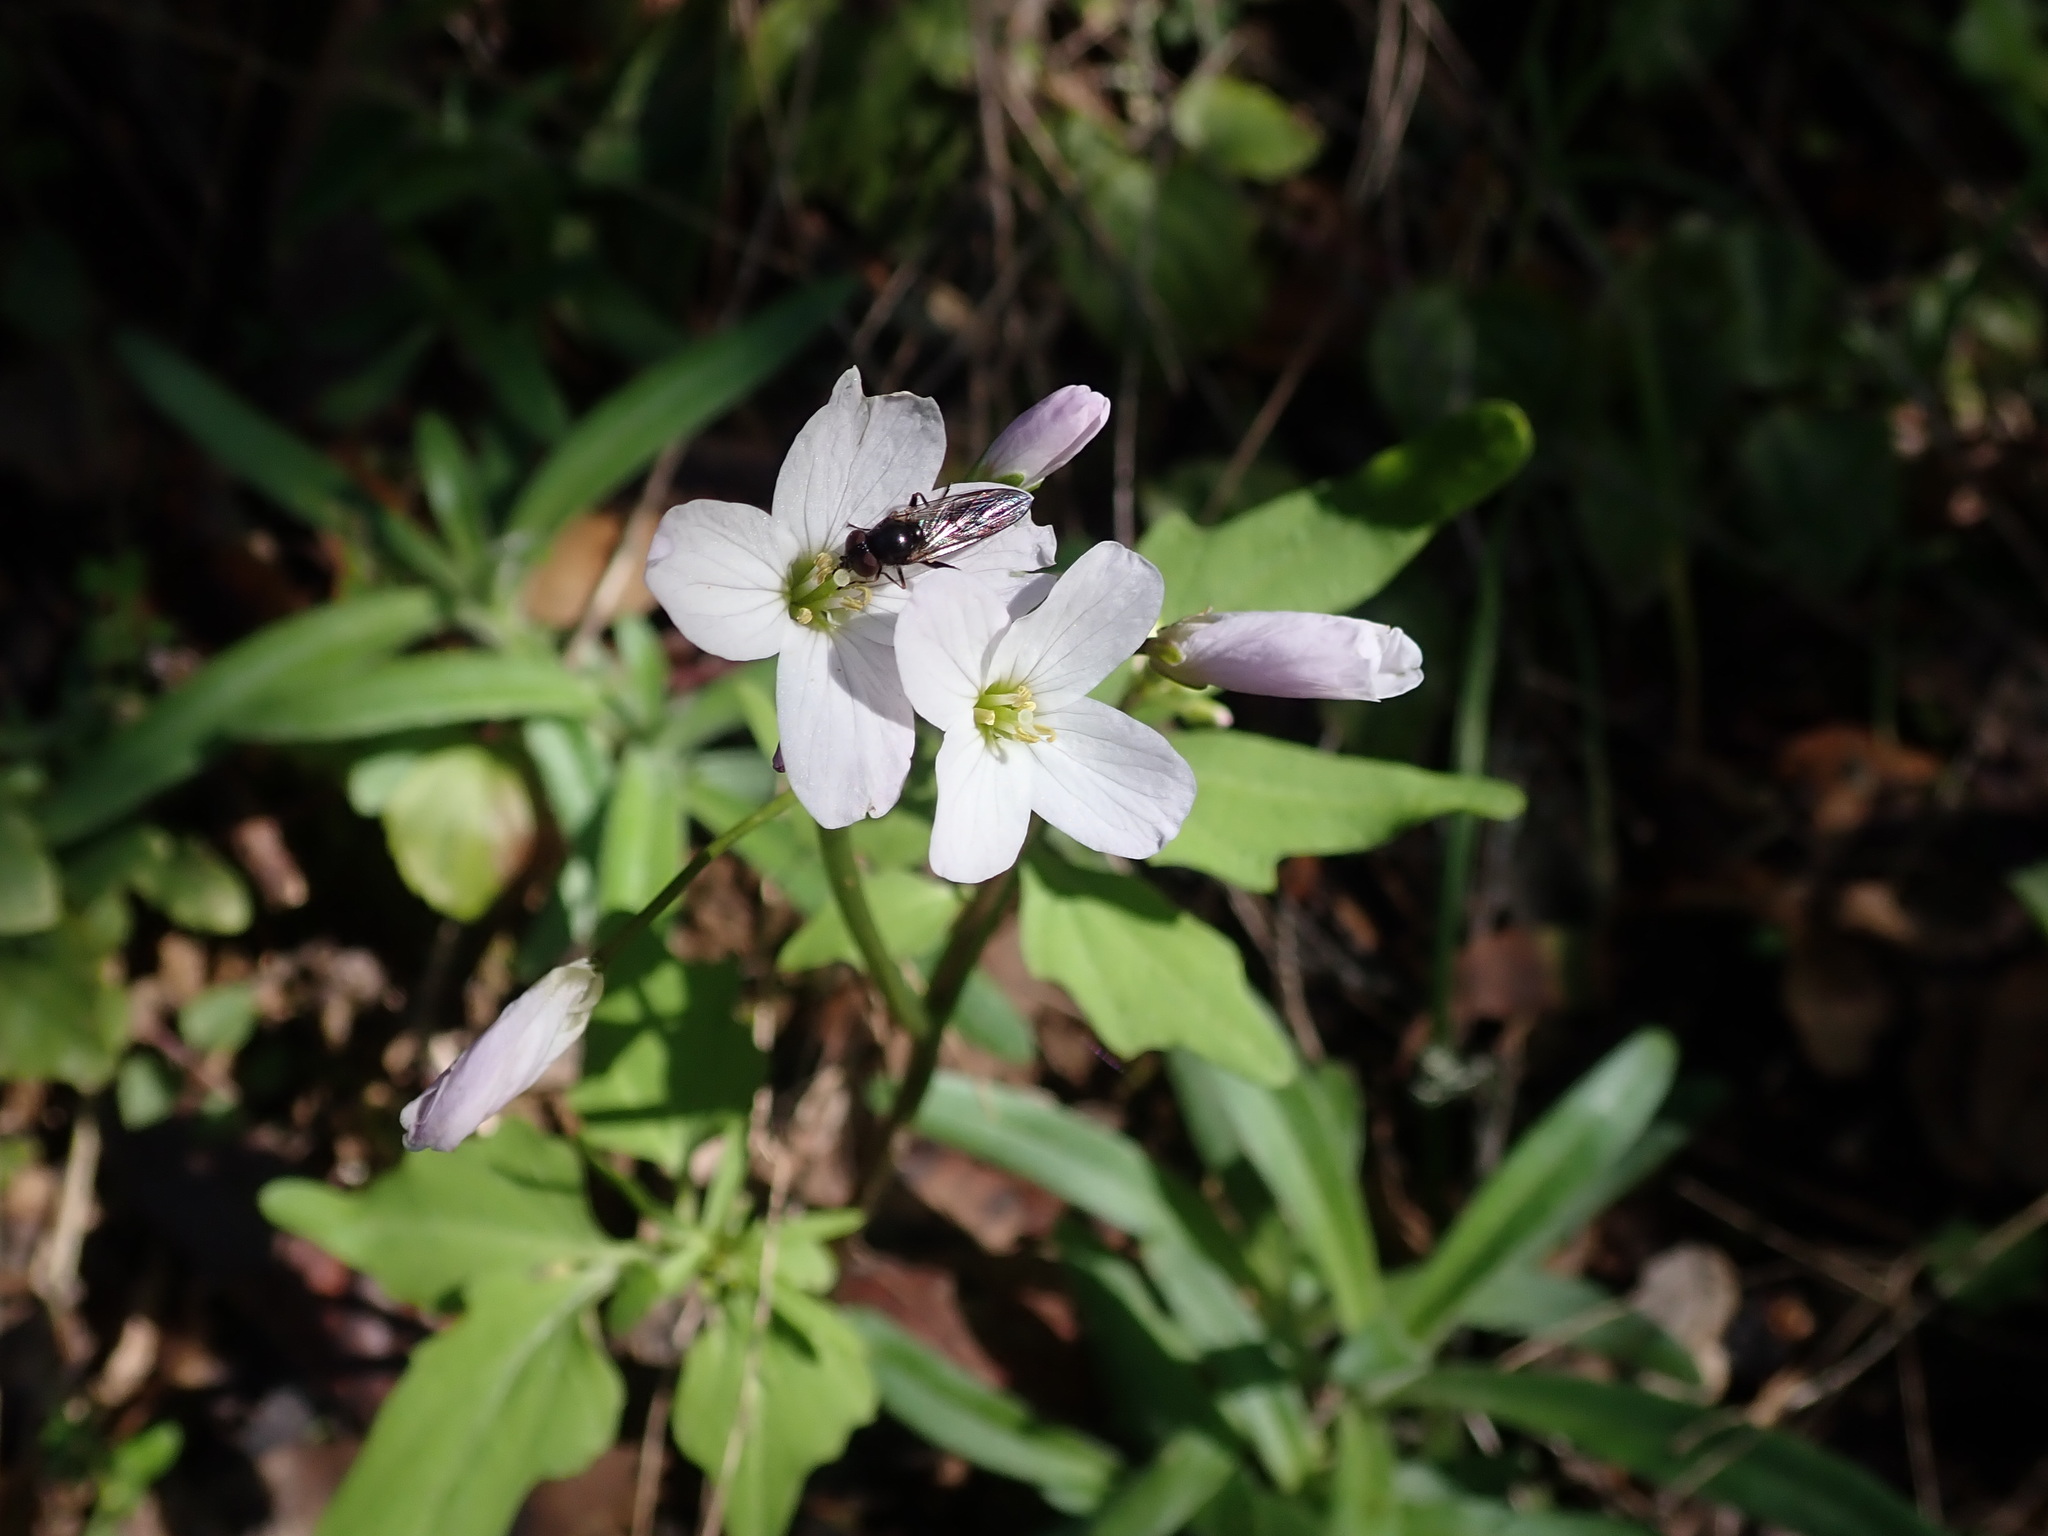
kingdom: Plantae
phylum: Tracheophyta
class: Magnoliopsida
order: Brassicales
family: Brassicaceae
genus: Cardamine
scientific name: Cardamine californica
